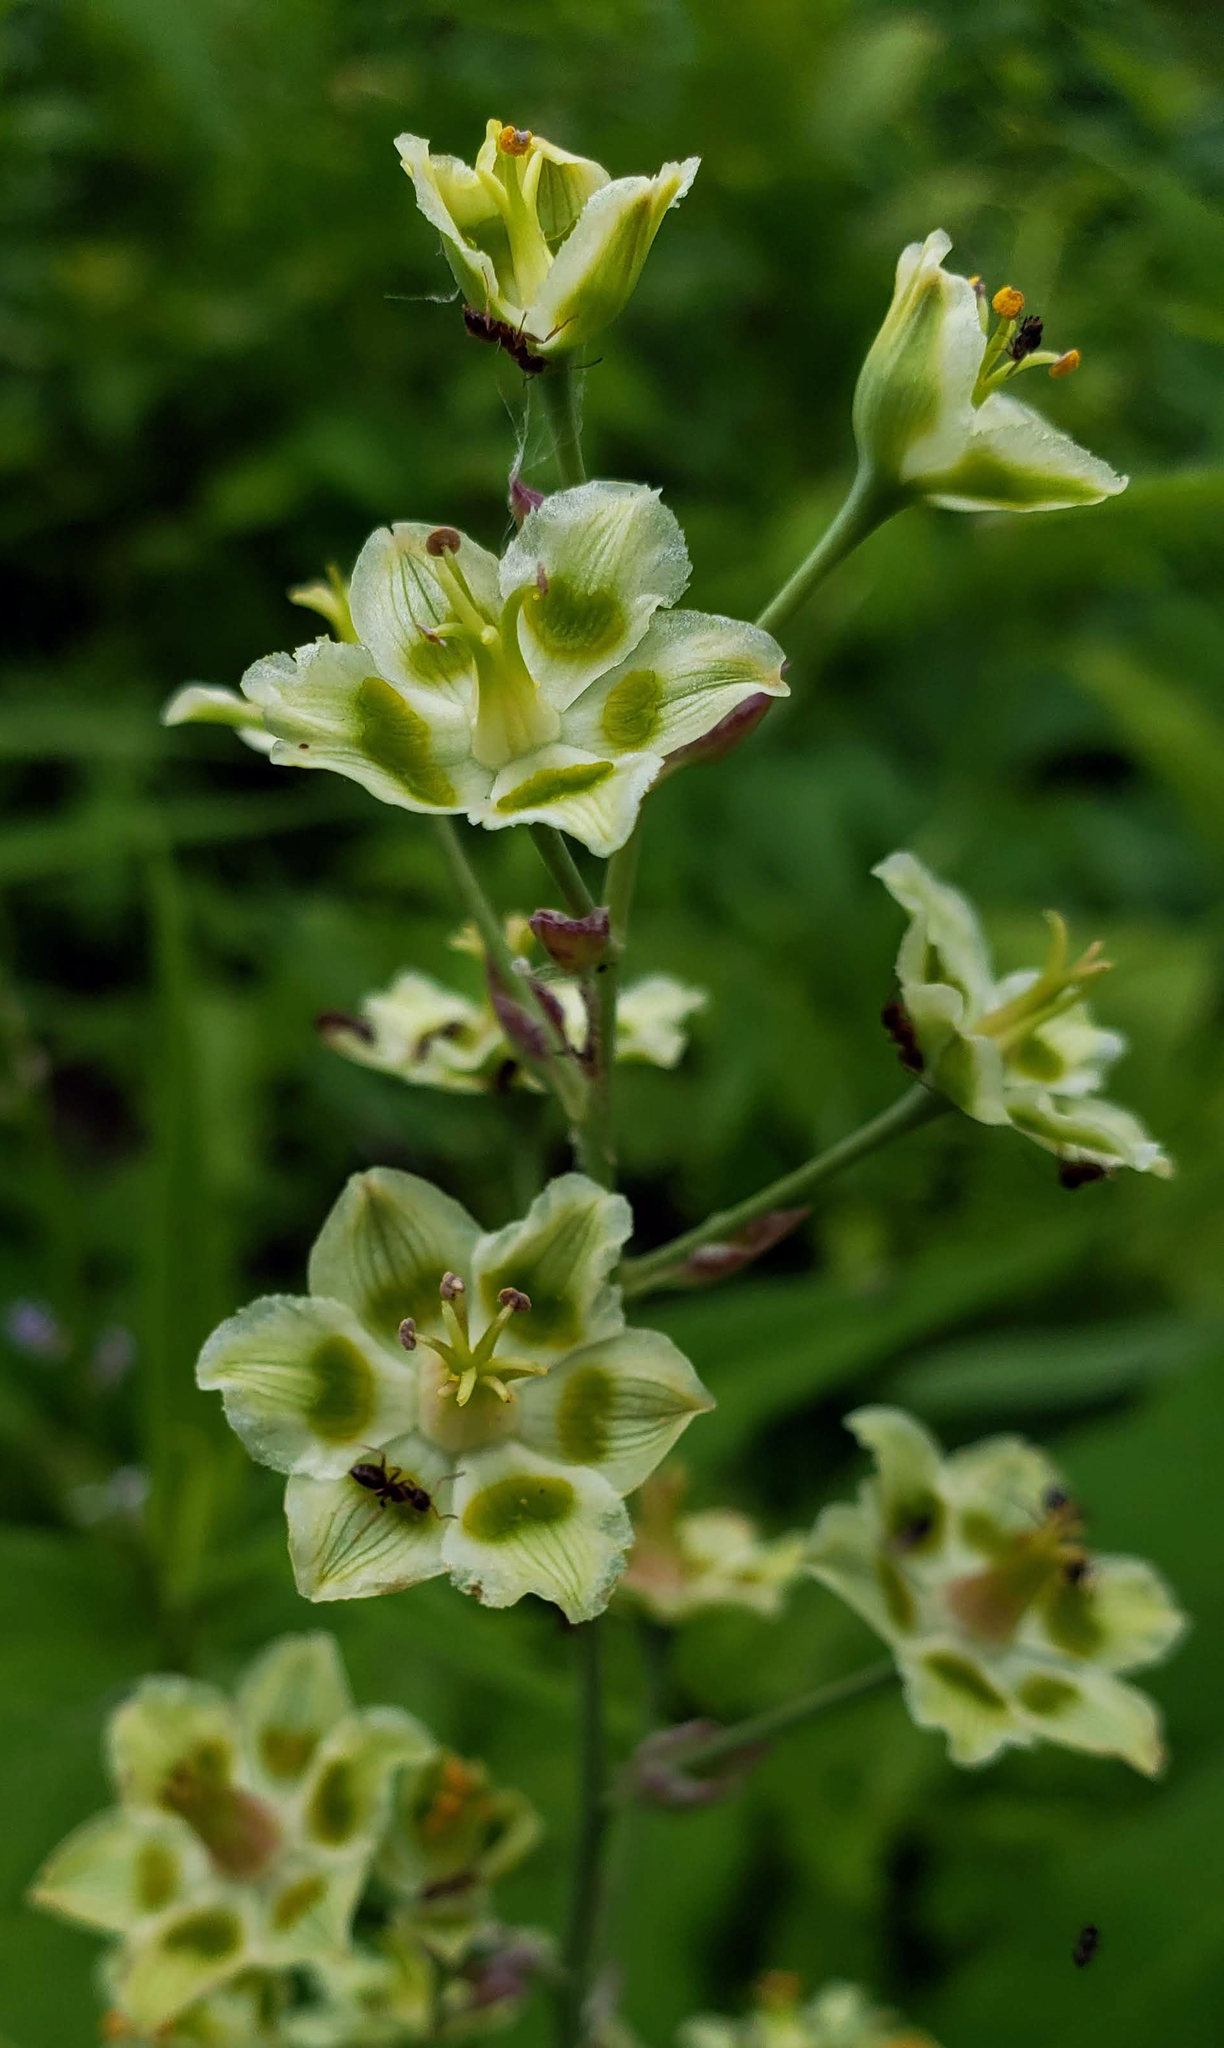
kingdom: Plantae
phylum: Tracheophyta
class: Liliopsida
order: Liliales
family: Melanthiaceae
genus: Anticlea
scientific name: Anticlea elegans
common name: Mountain death camas
